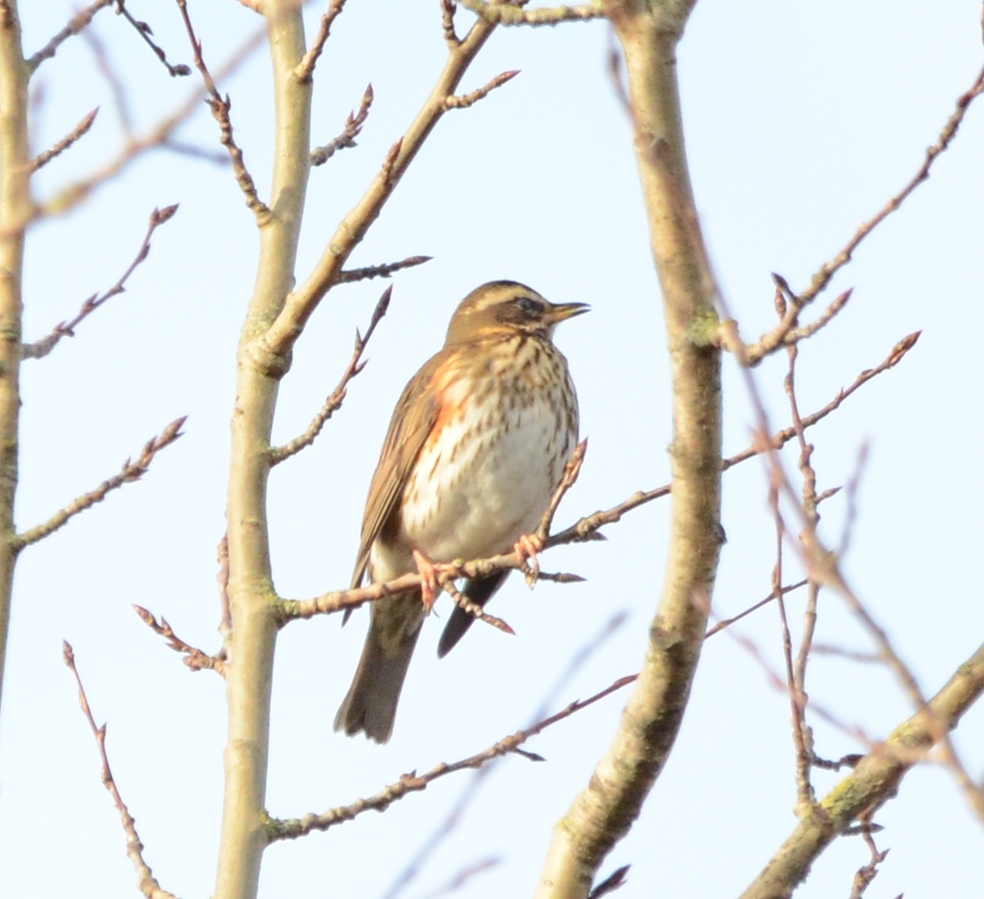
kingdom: Animalia
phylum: Chordata
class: Aves
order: Passeriformes
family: Turdidae
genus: Turdus
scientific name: Turdus iliacus
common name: Redwing
